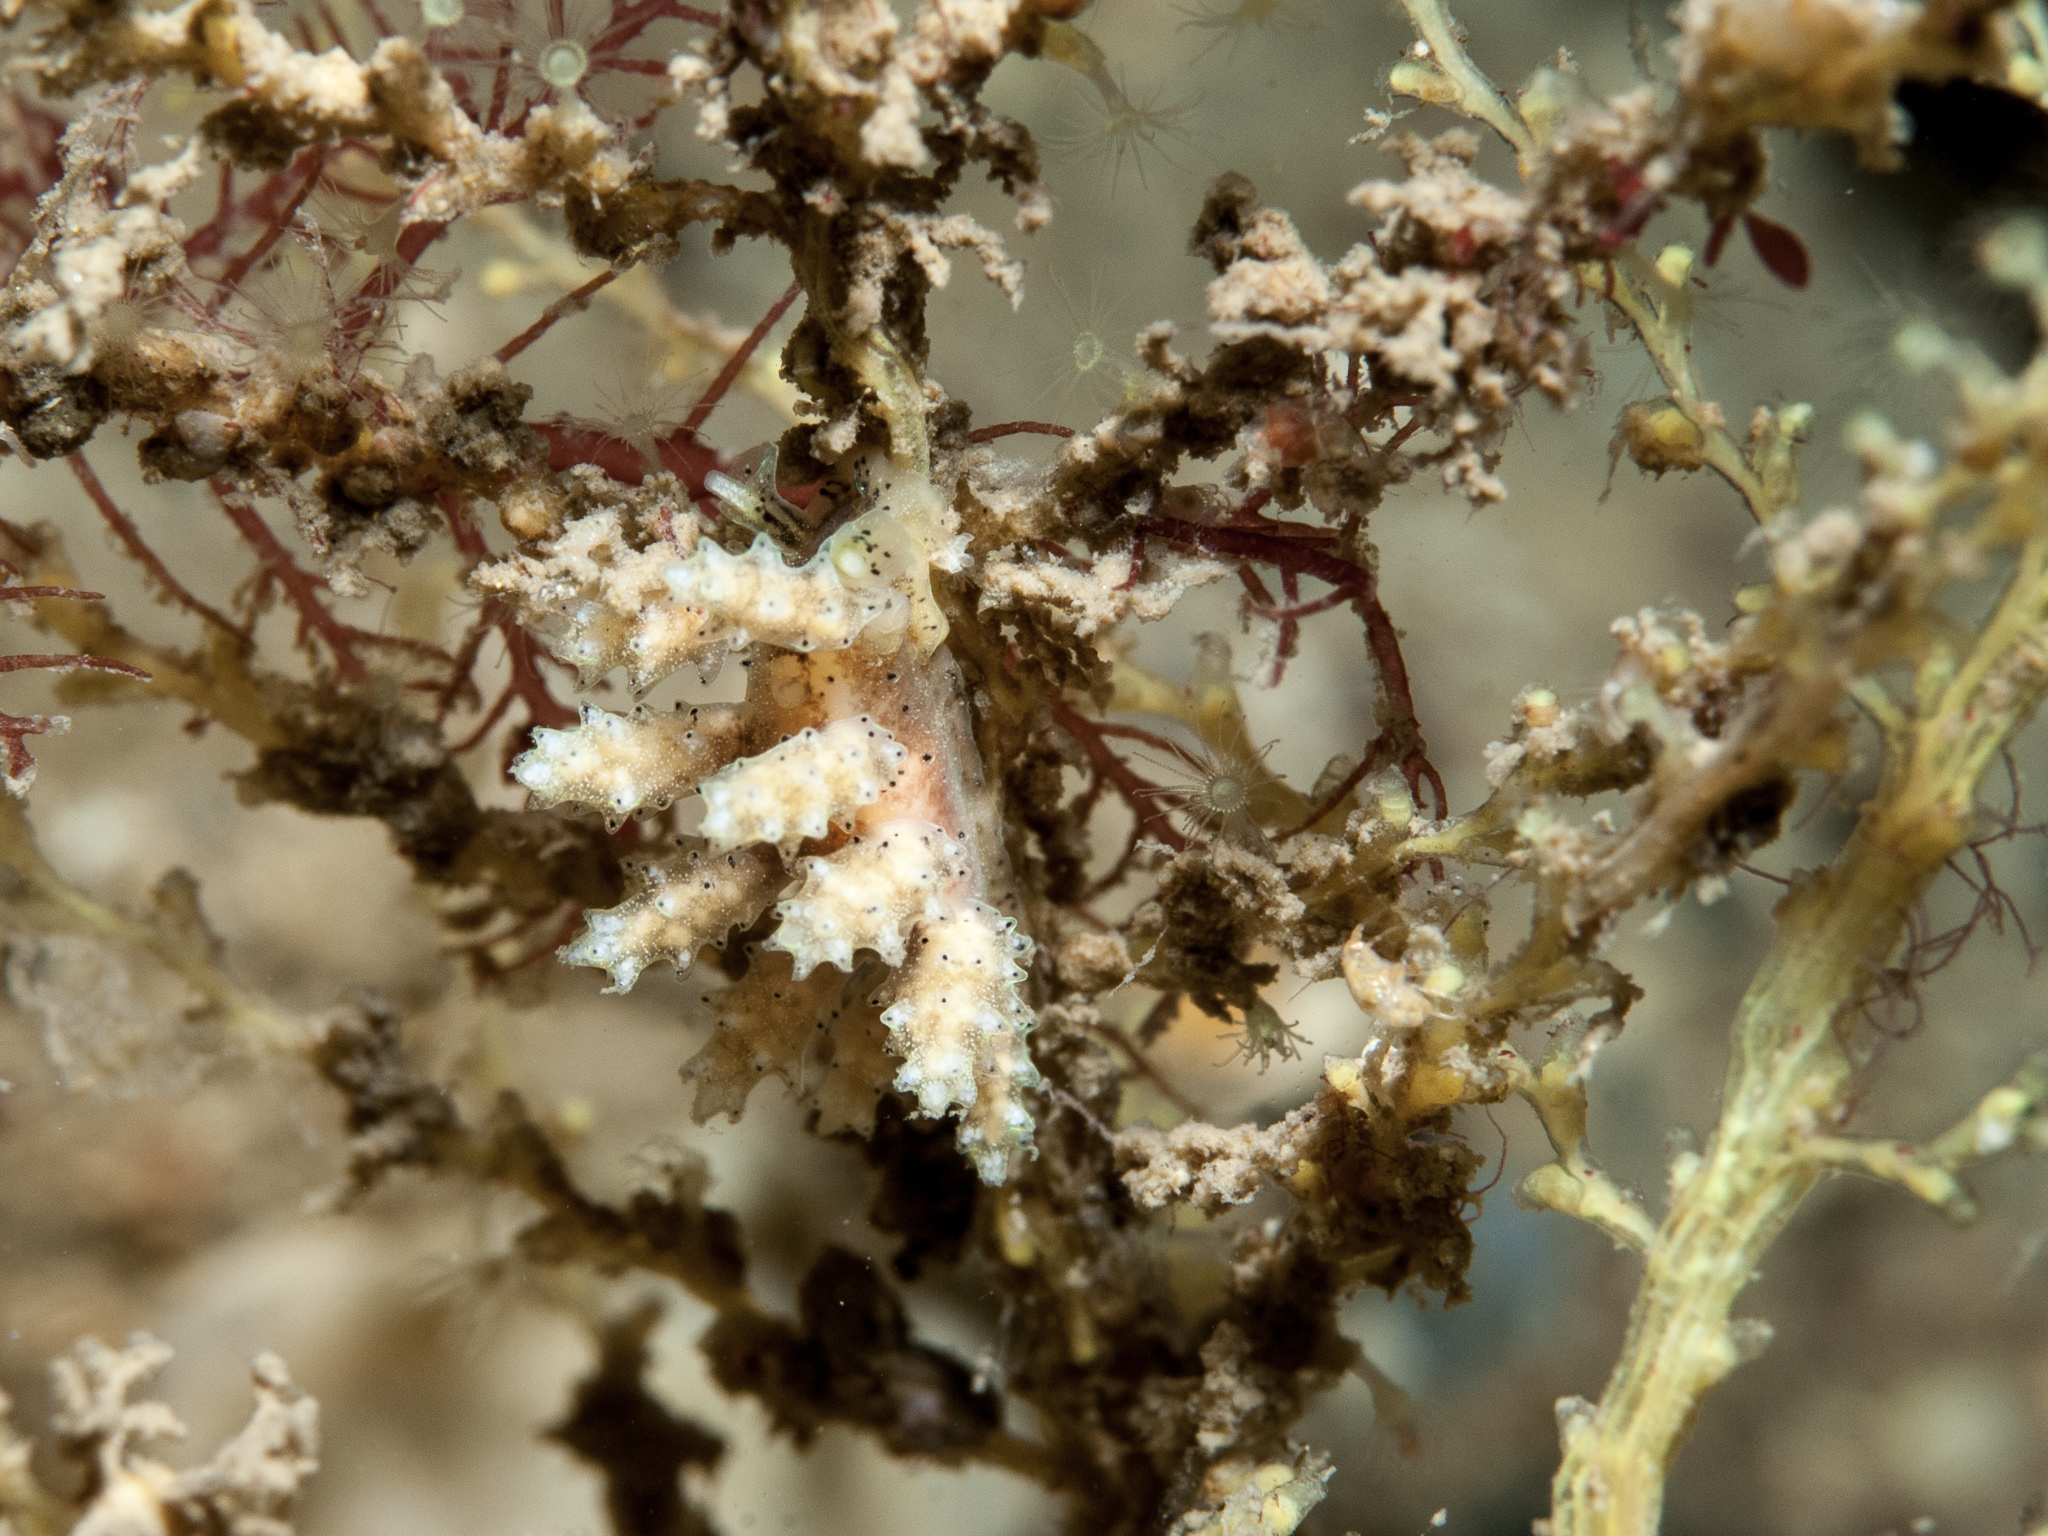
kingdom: Animalia
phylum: Mollusca
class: Gastropoda
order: Nudibranchia
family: Dotidae
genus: Doto
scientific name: Doto tuberculata
